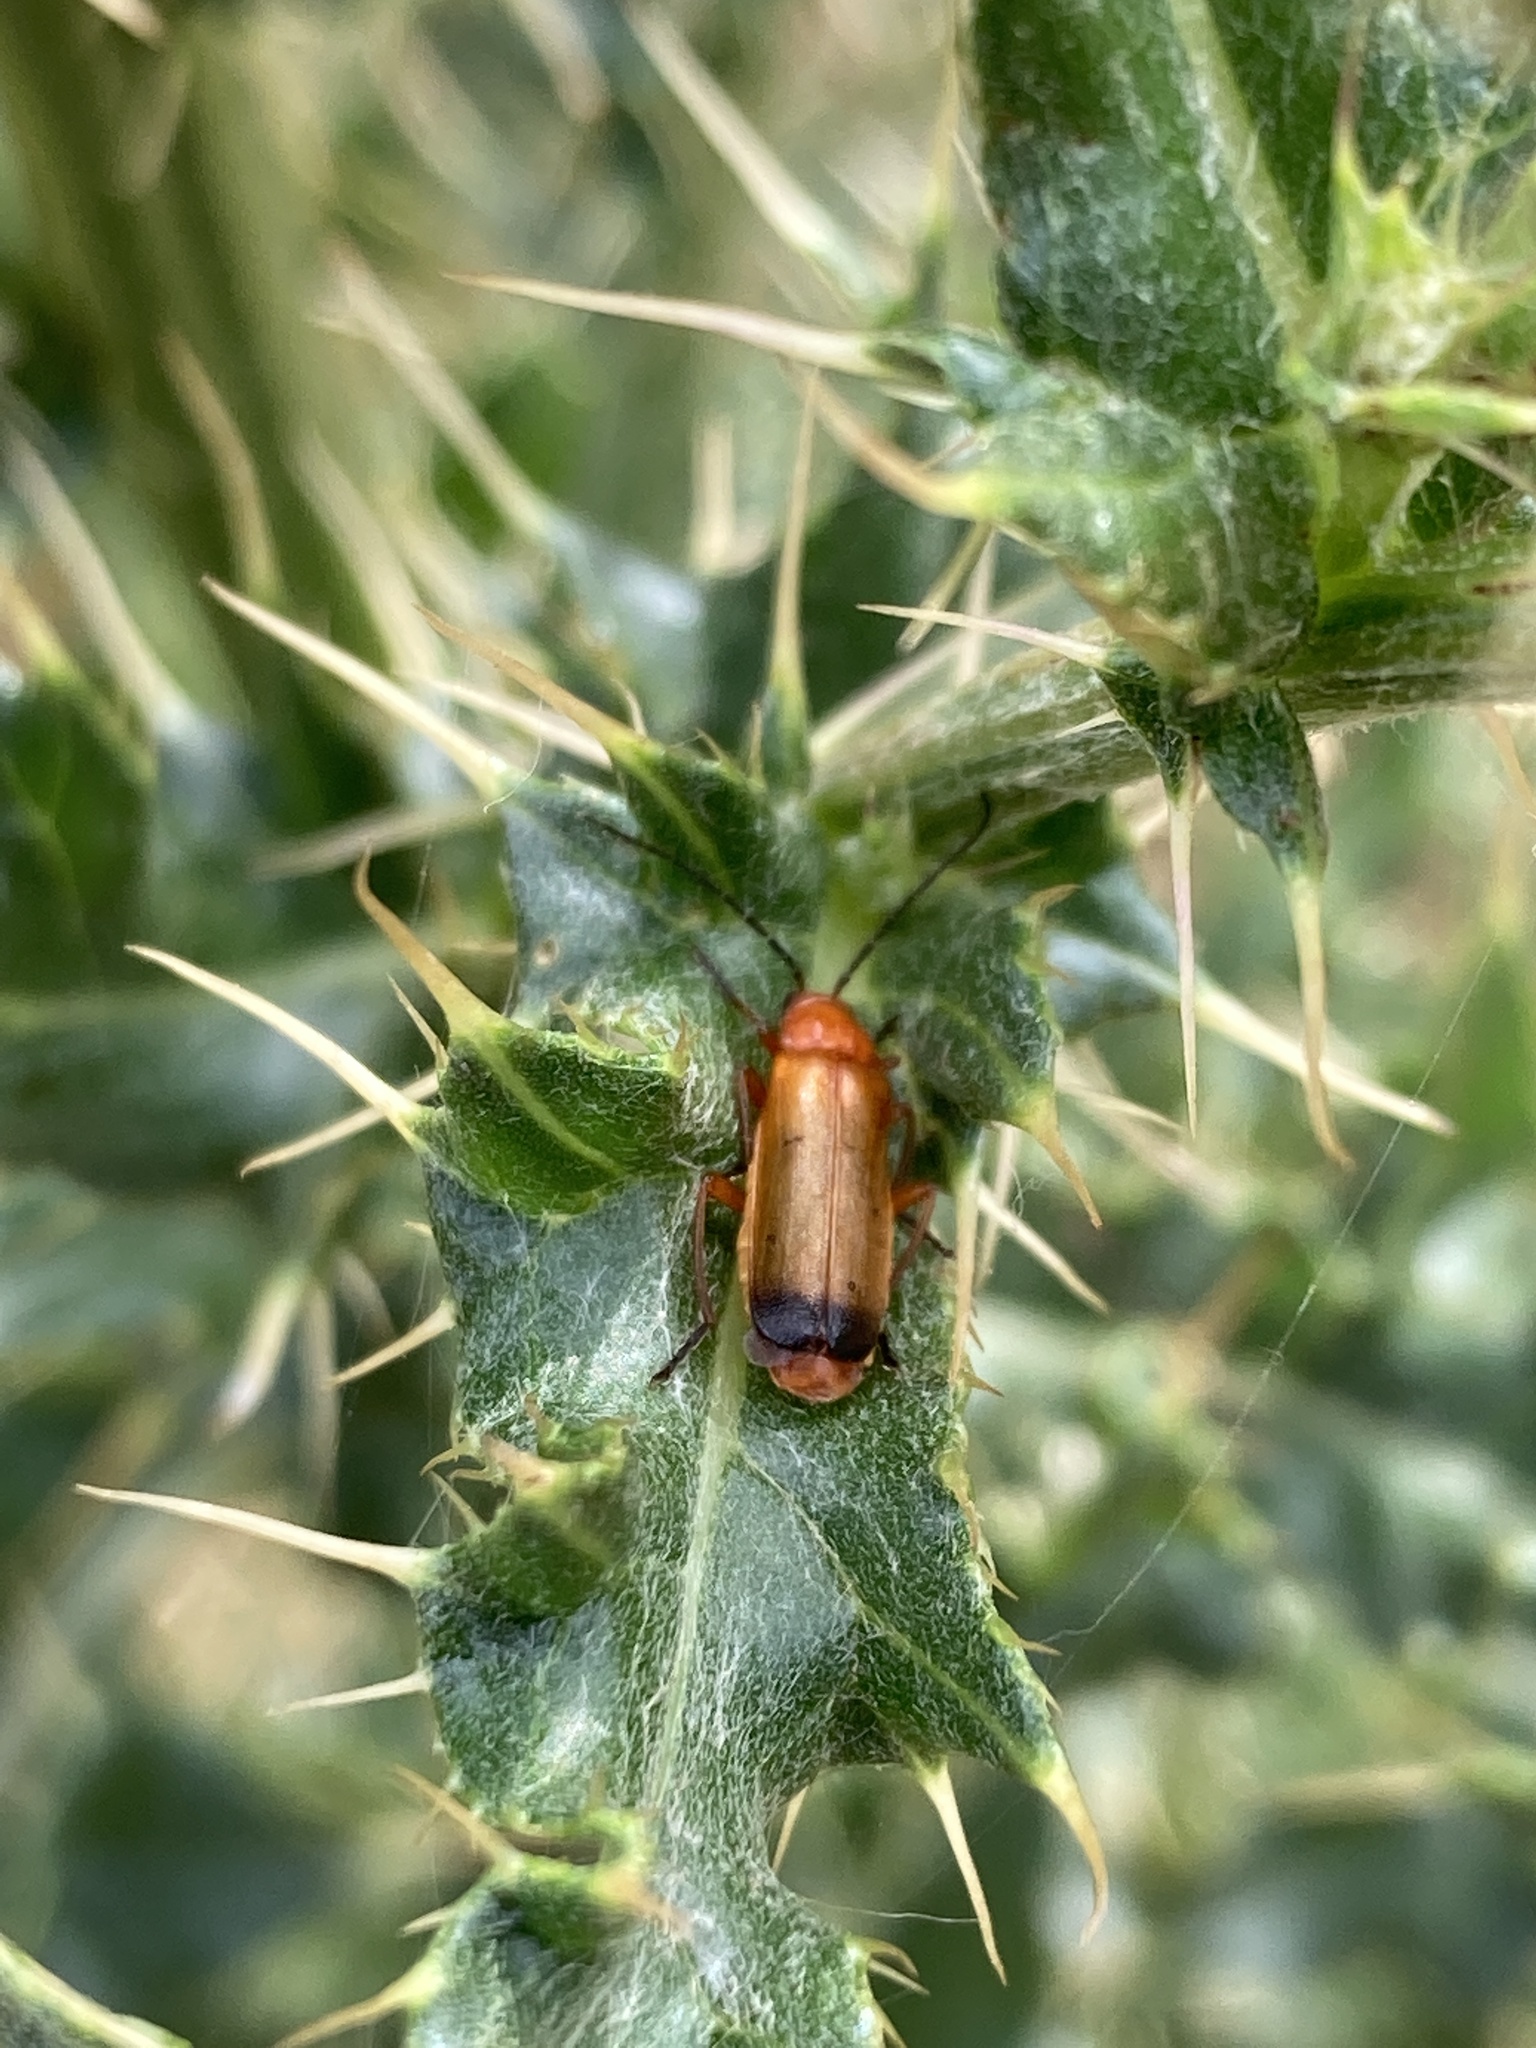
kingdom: Animalia
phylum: Arthropoda
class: Insecta
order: Coleoptera
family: Cantharidae
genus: Rhagonycha
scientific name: Rhagonycha fulva
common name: Common red soldier beetle
